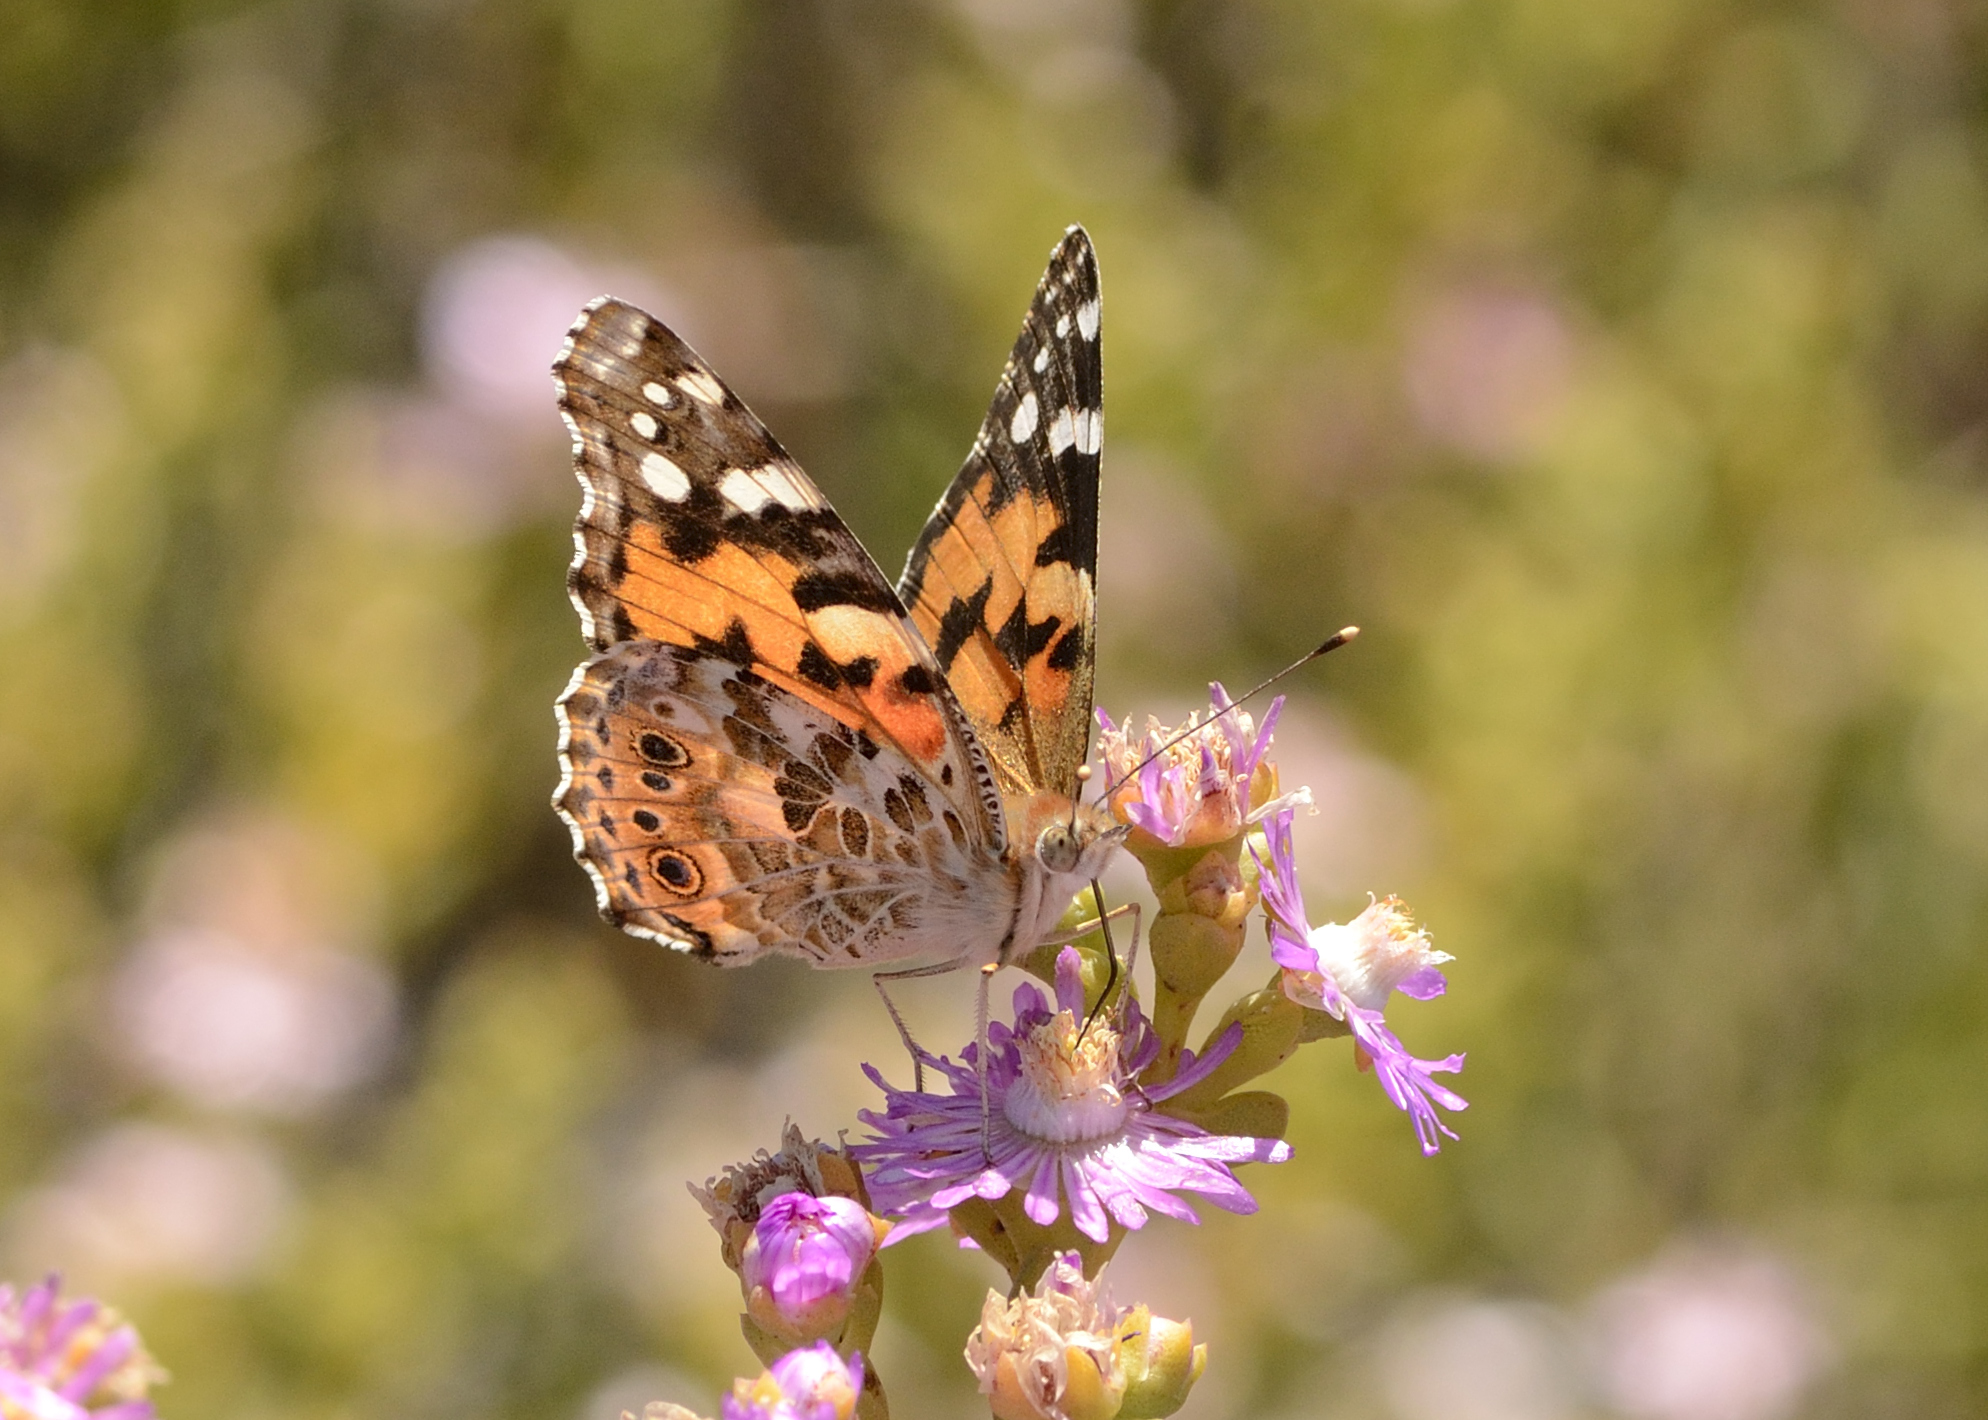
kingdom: Animalia
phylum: Arthropoda
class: Insecta
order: Lepidoptera
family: Nymphalidae
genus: Vanessa
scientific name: Vanessa cardui
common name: Painted lady
